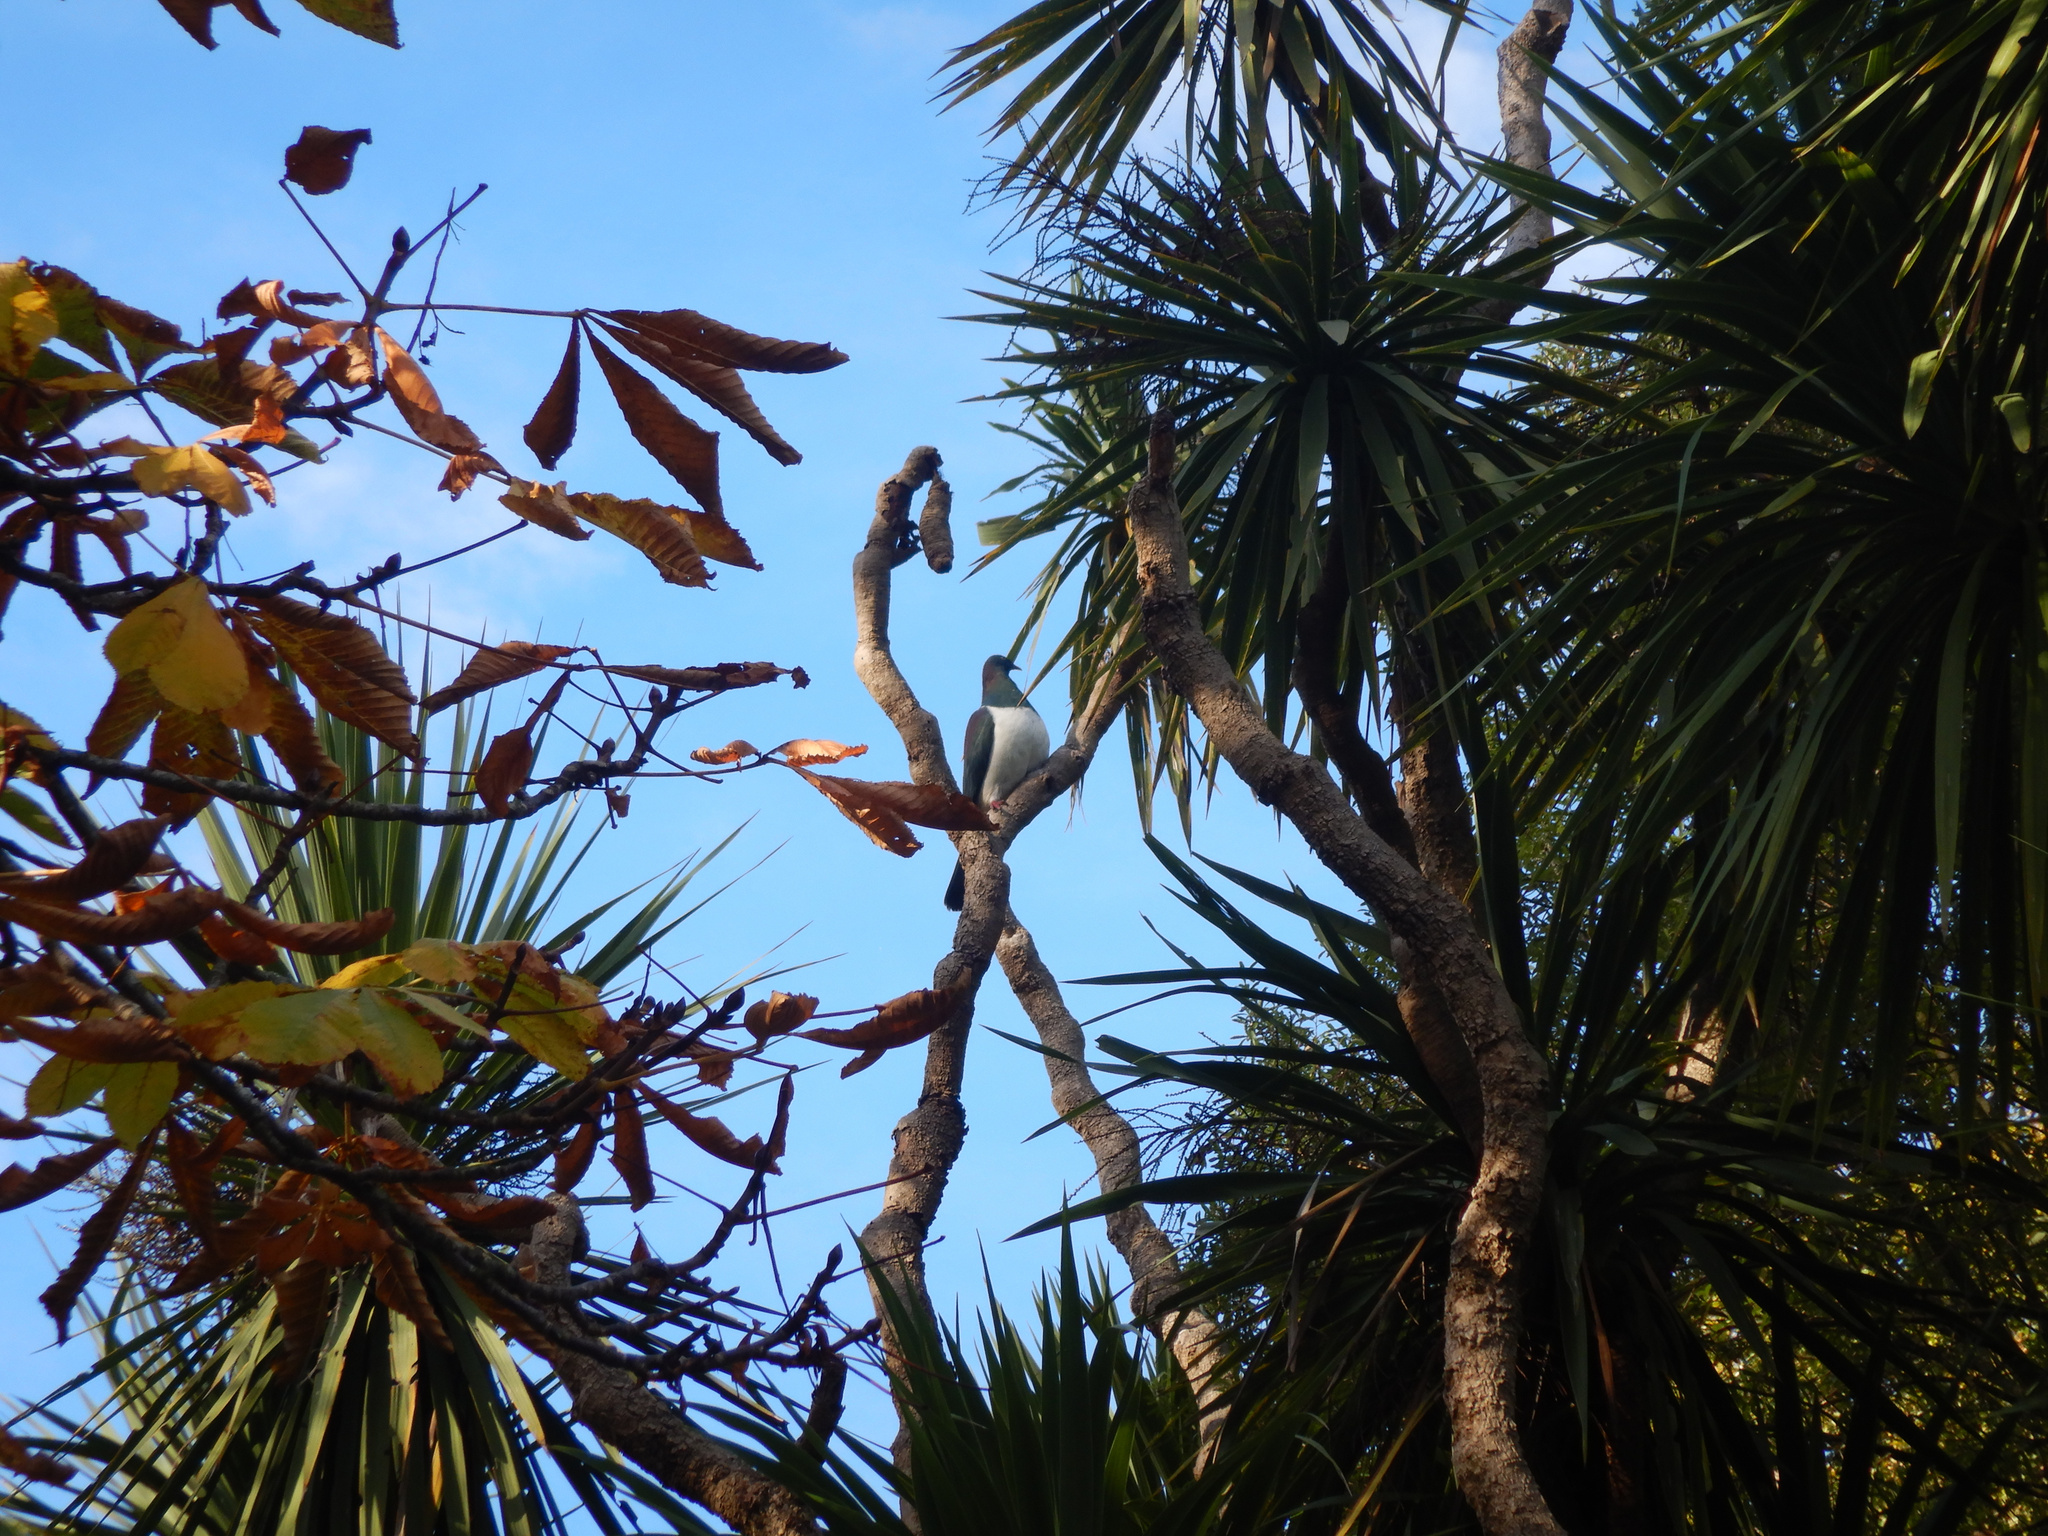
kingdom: Animalia
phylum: Chordata
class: Aves
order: Columbiformes
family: Columbidae
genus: Hemiphaga
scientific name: Hemiphaga novaeseelandiae
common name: New zealand pigeon
